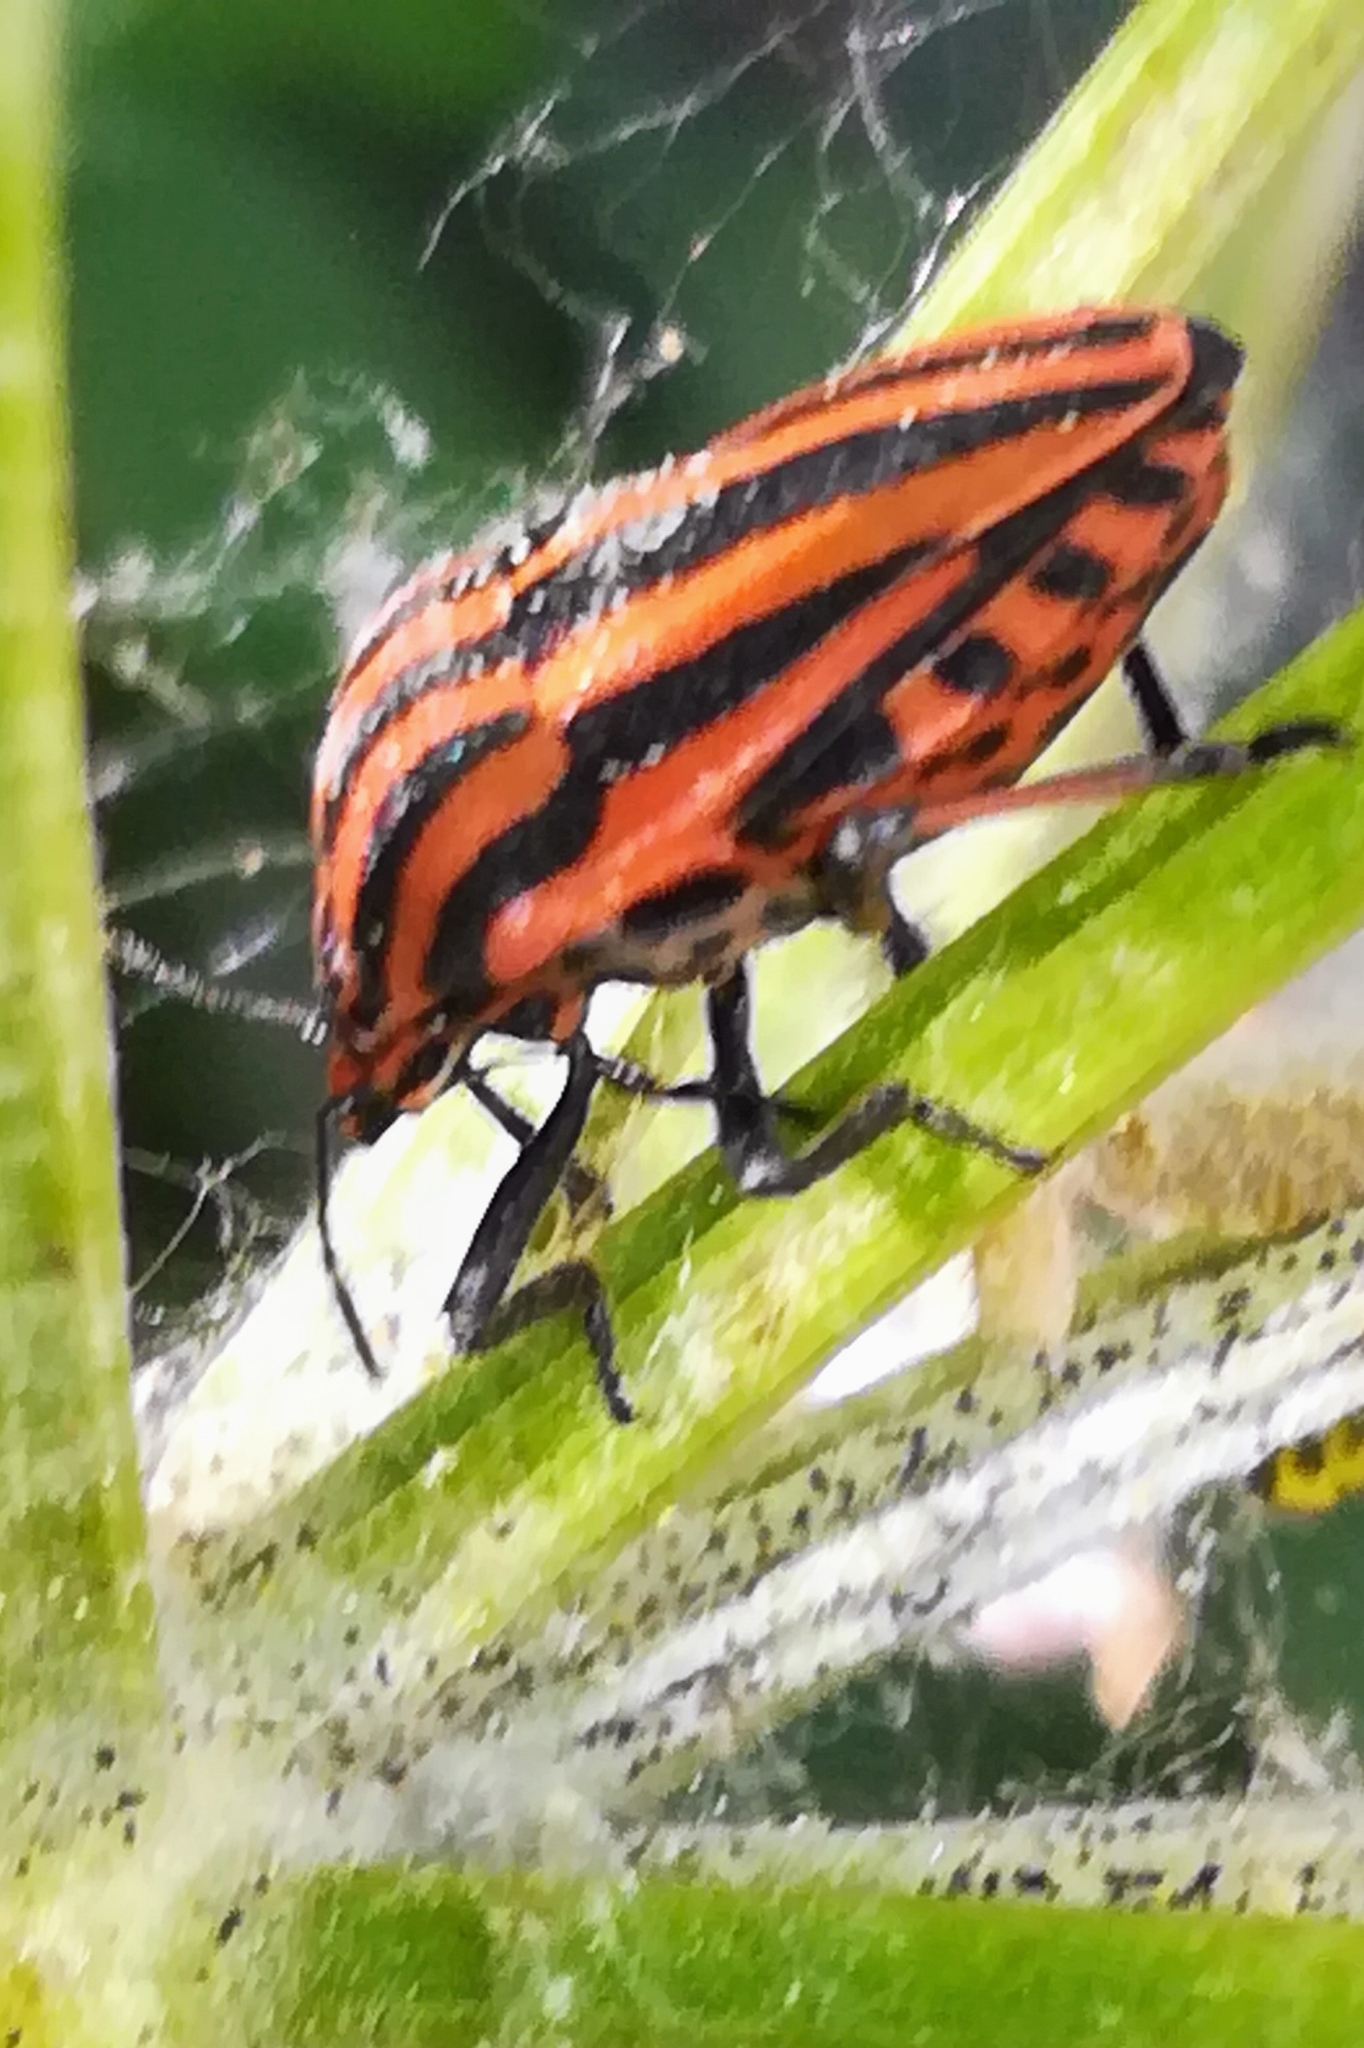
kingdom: Animalia
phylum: Arthropoda
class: Insecta
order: Hemiptera
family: Pentatomidae
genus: Graphosoma
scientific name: Graphosoma italicum
